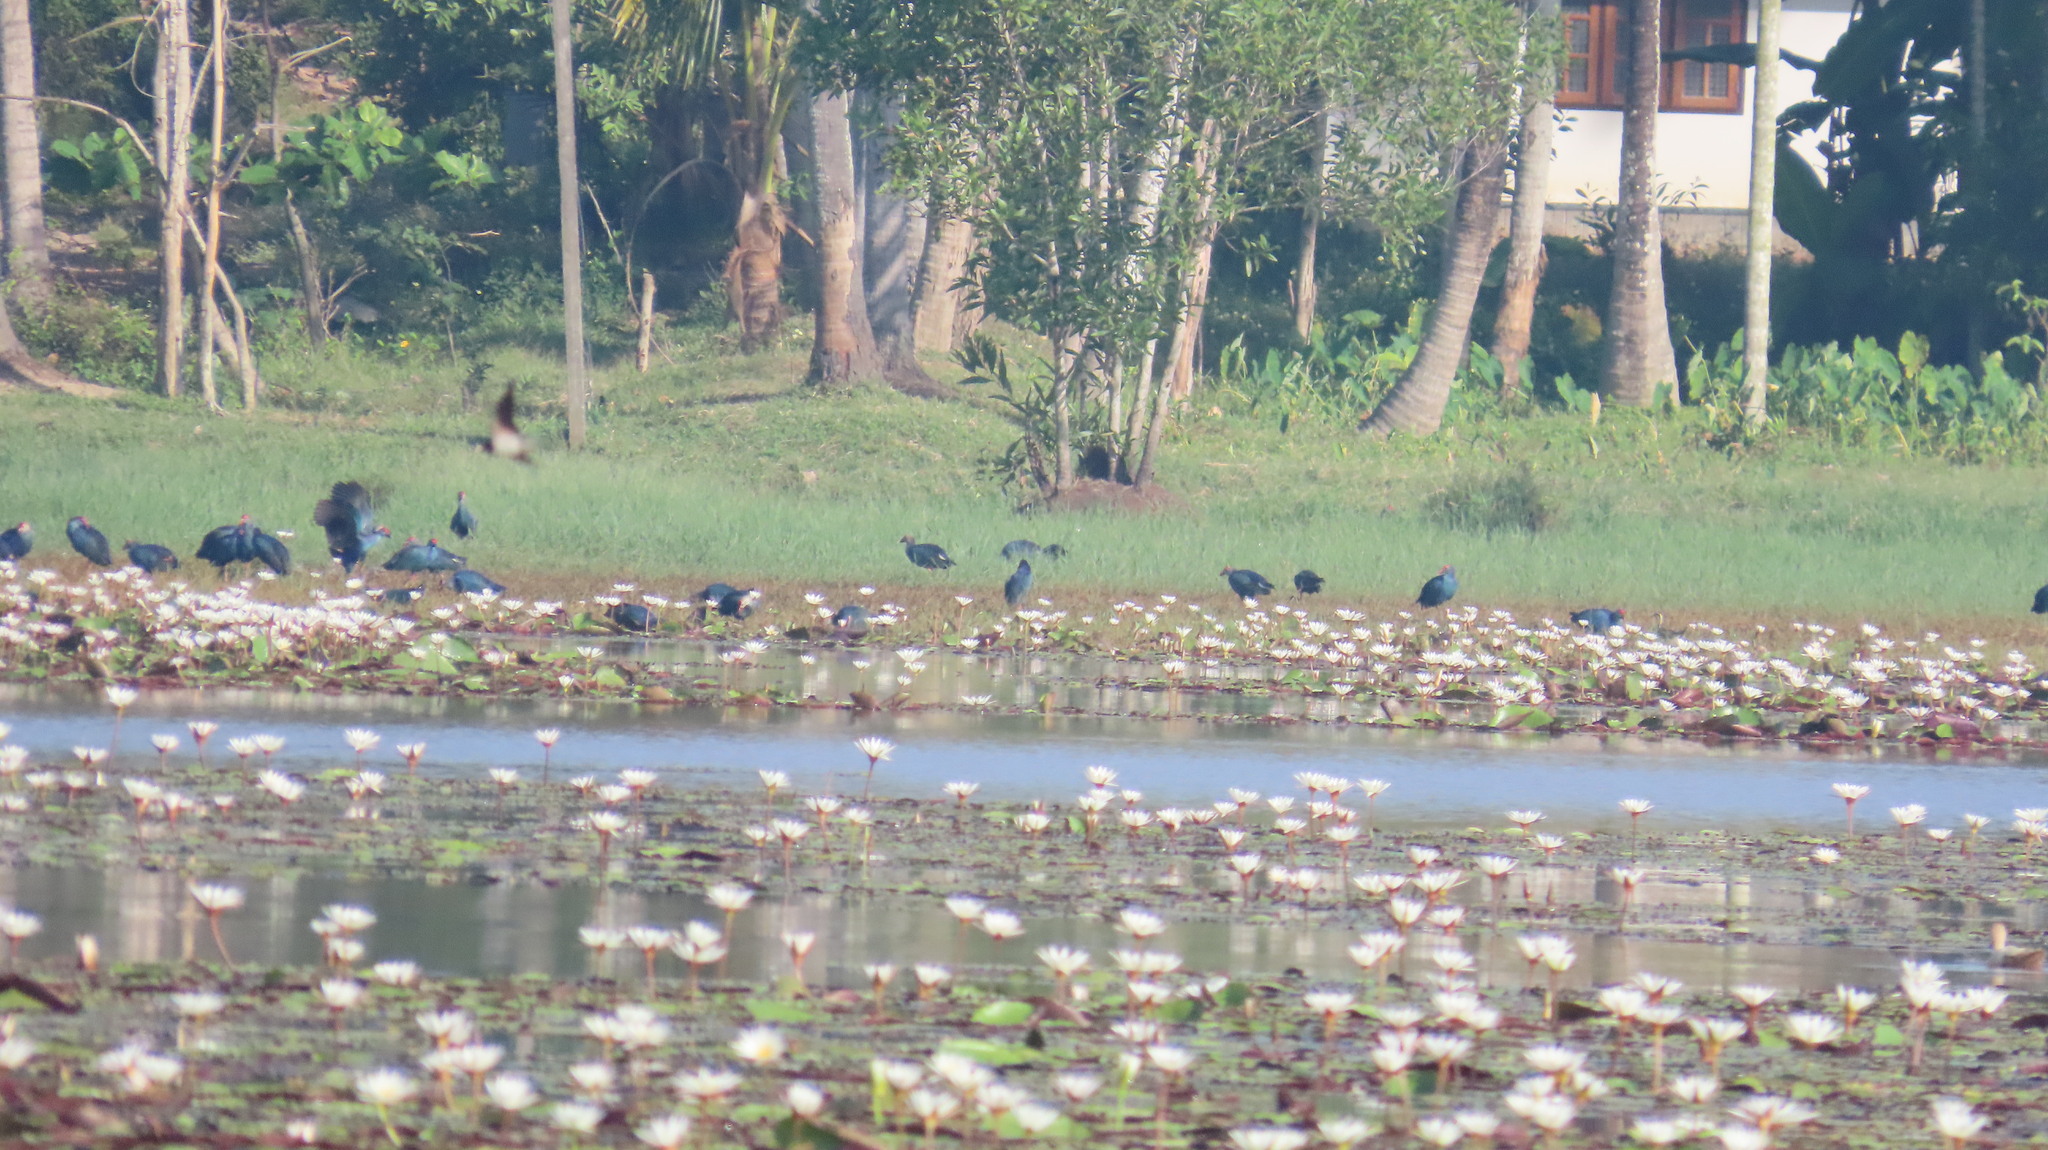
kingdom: Animalia
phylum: Chordata
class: Aves
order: Gruiformes
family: Rallidae
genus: Porphyrio
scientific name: Porphyrio porphyrio
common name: Purple swamphen
